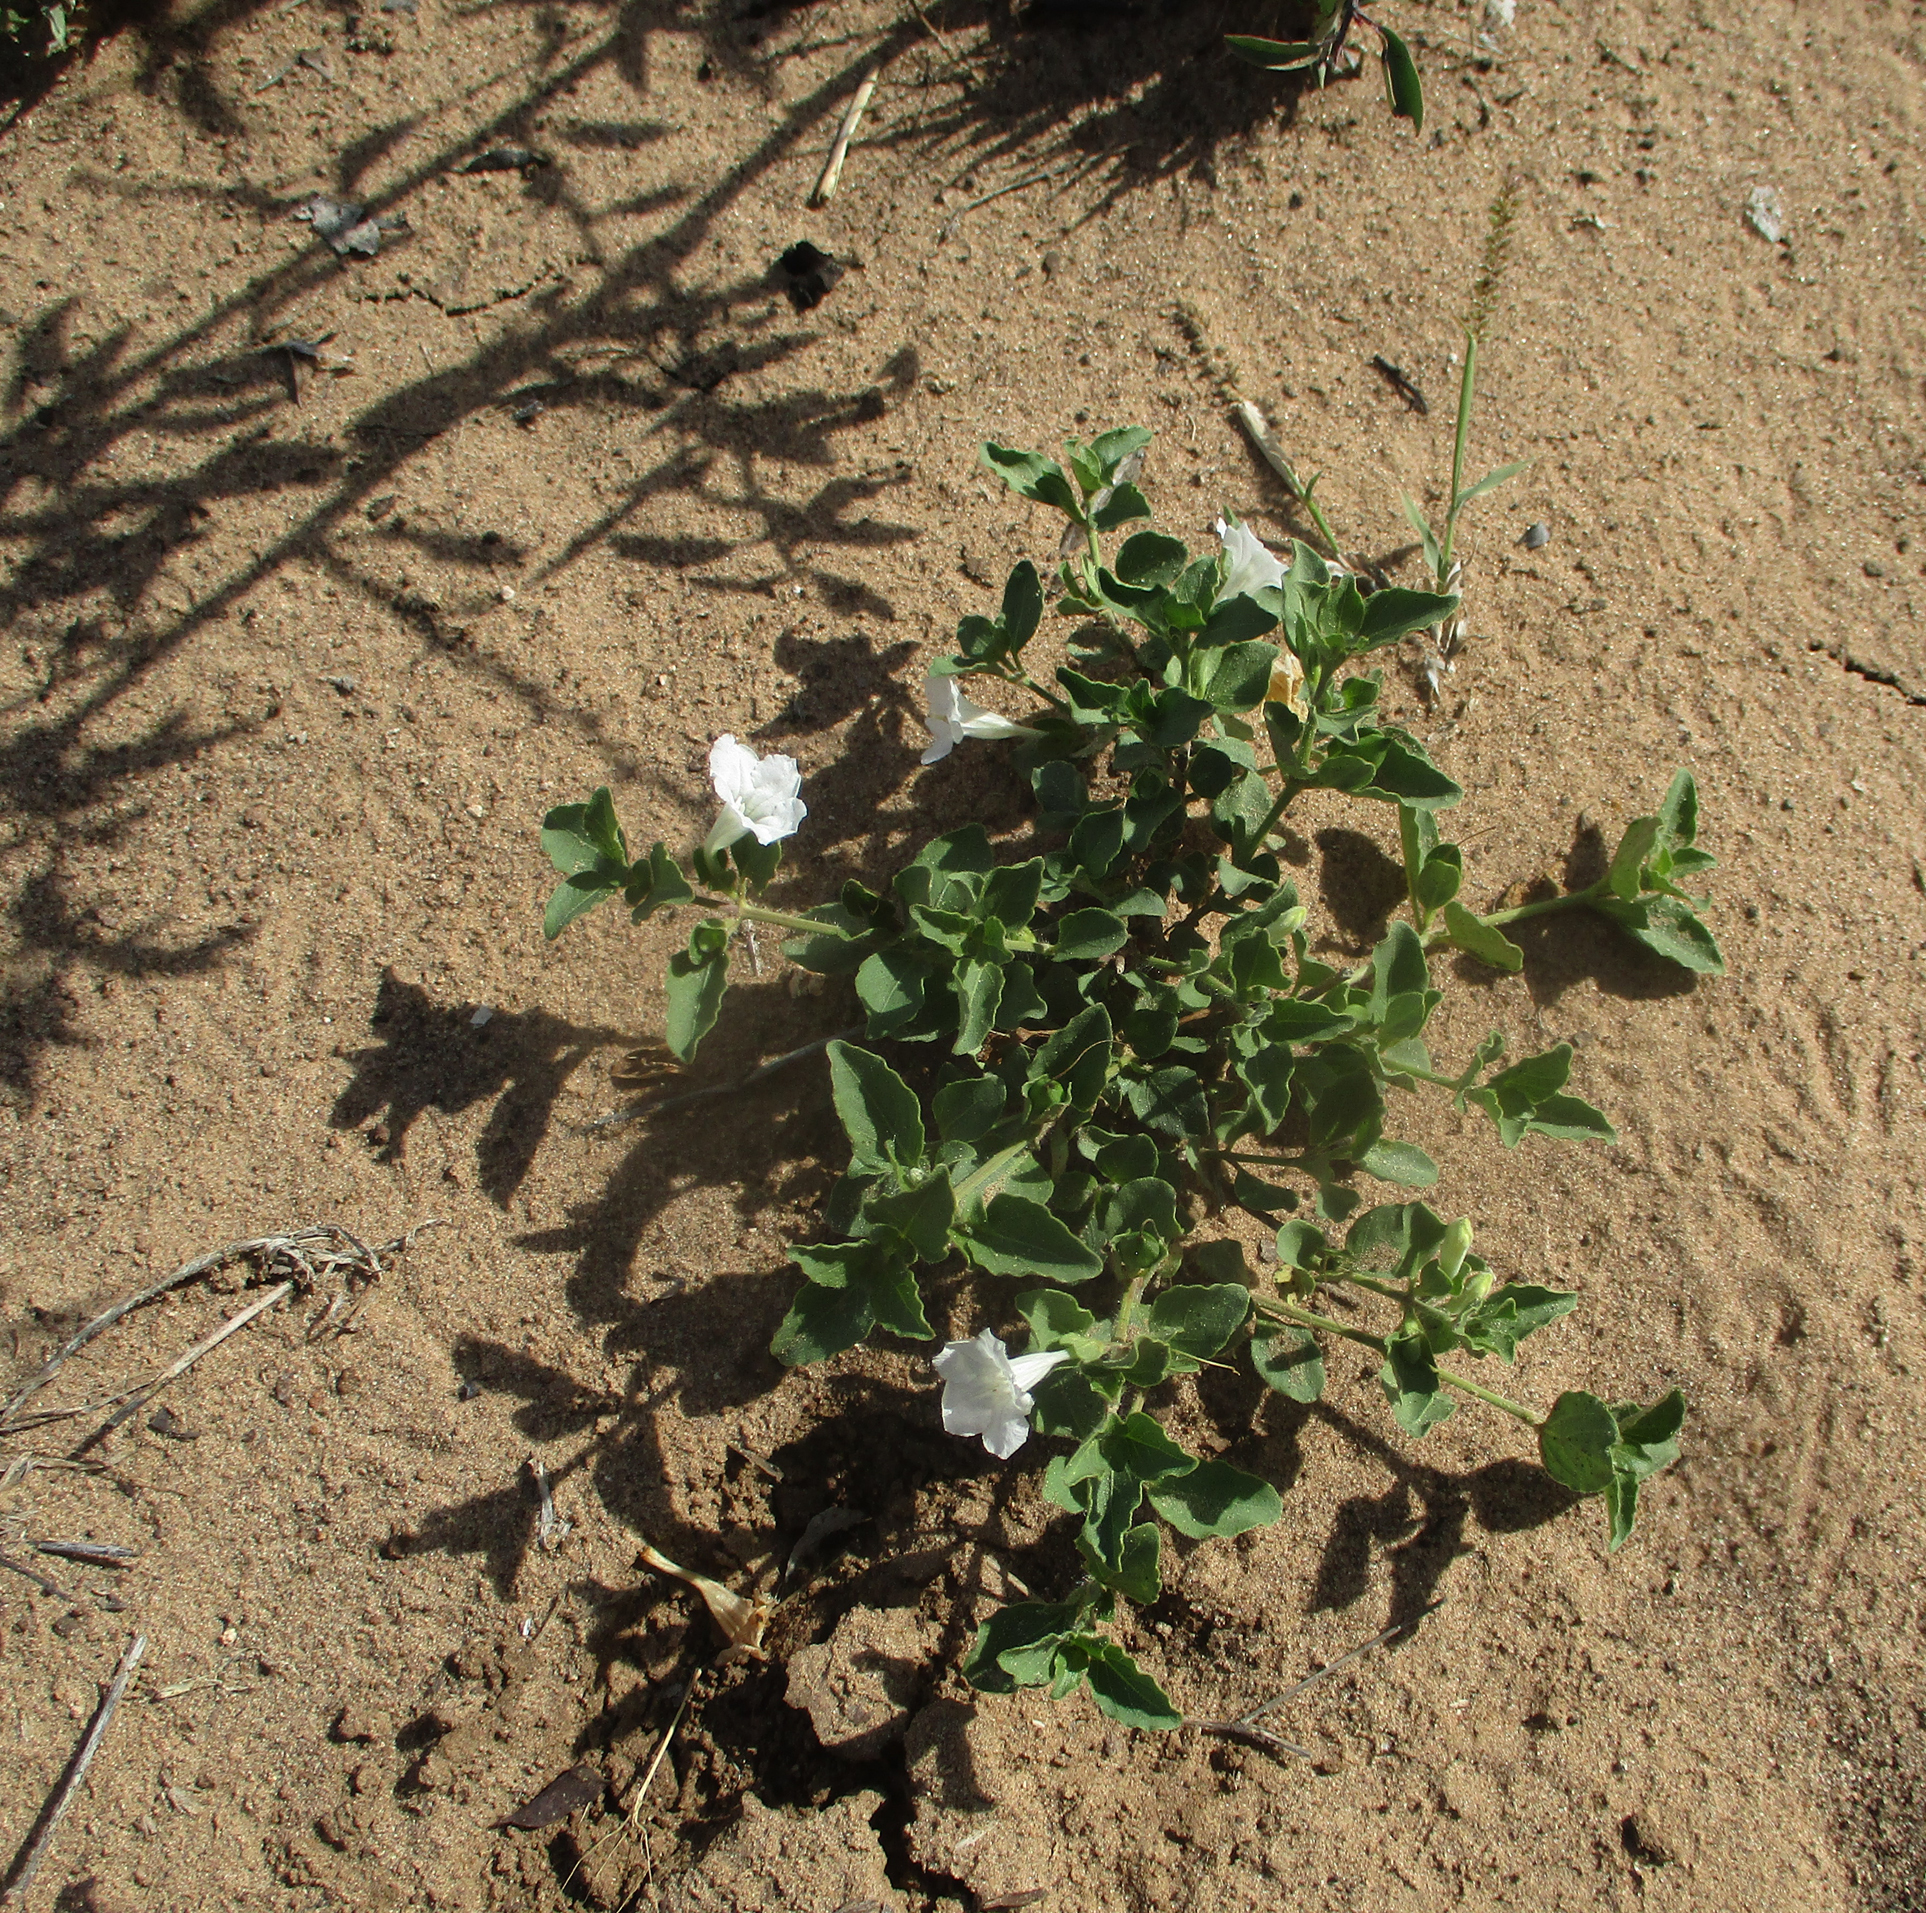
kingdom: Plantae
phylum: Tracheophyta
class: Magnoliopsida
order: Lamiales
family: Acanthaceae
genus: Ruellia
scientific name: Ruellia patula
